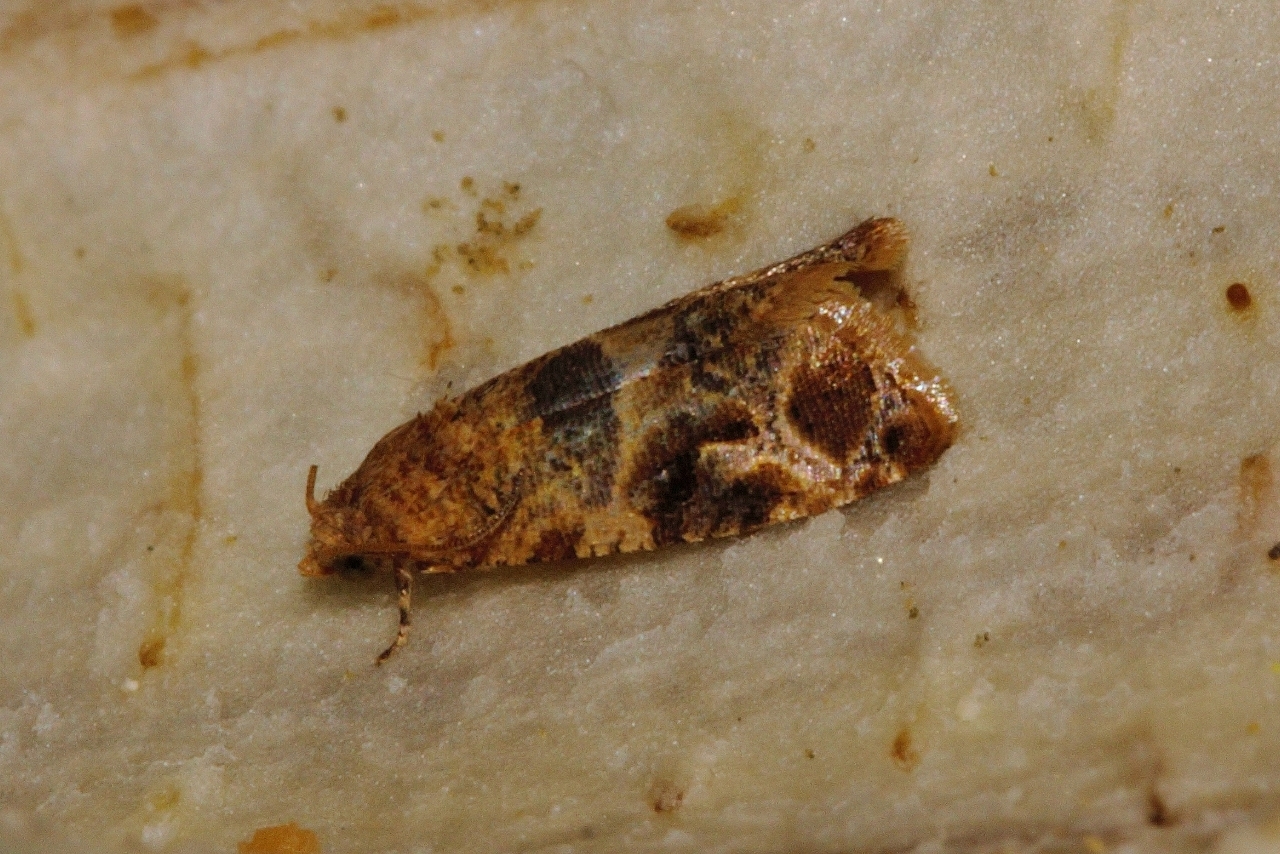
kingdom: Animalia
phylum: Arthropoda
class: Insecta
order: Lepidoptera
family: Tortricidae
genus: Lobesia
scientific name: Lobesia vanillana
